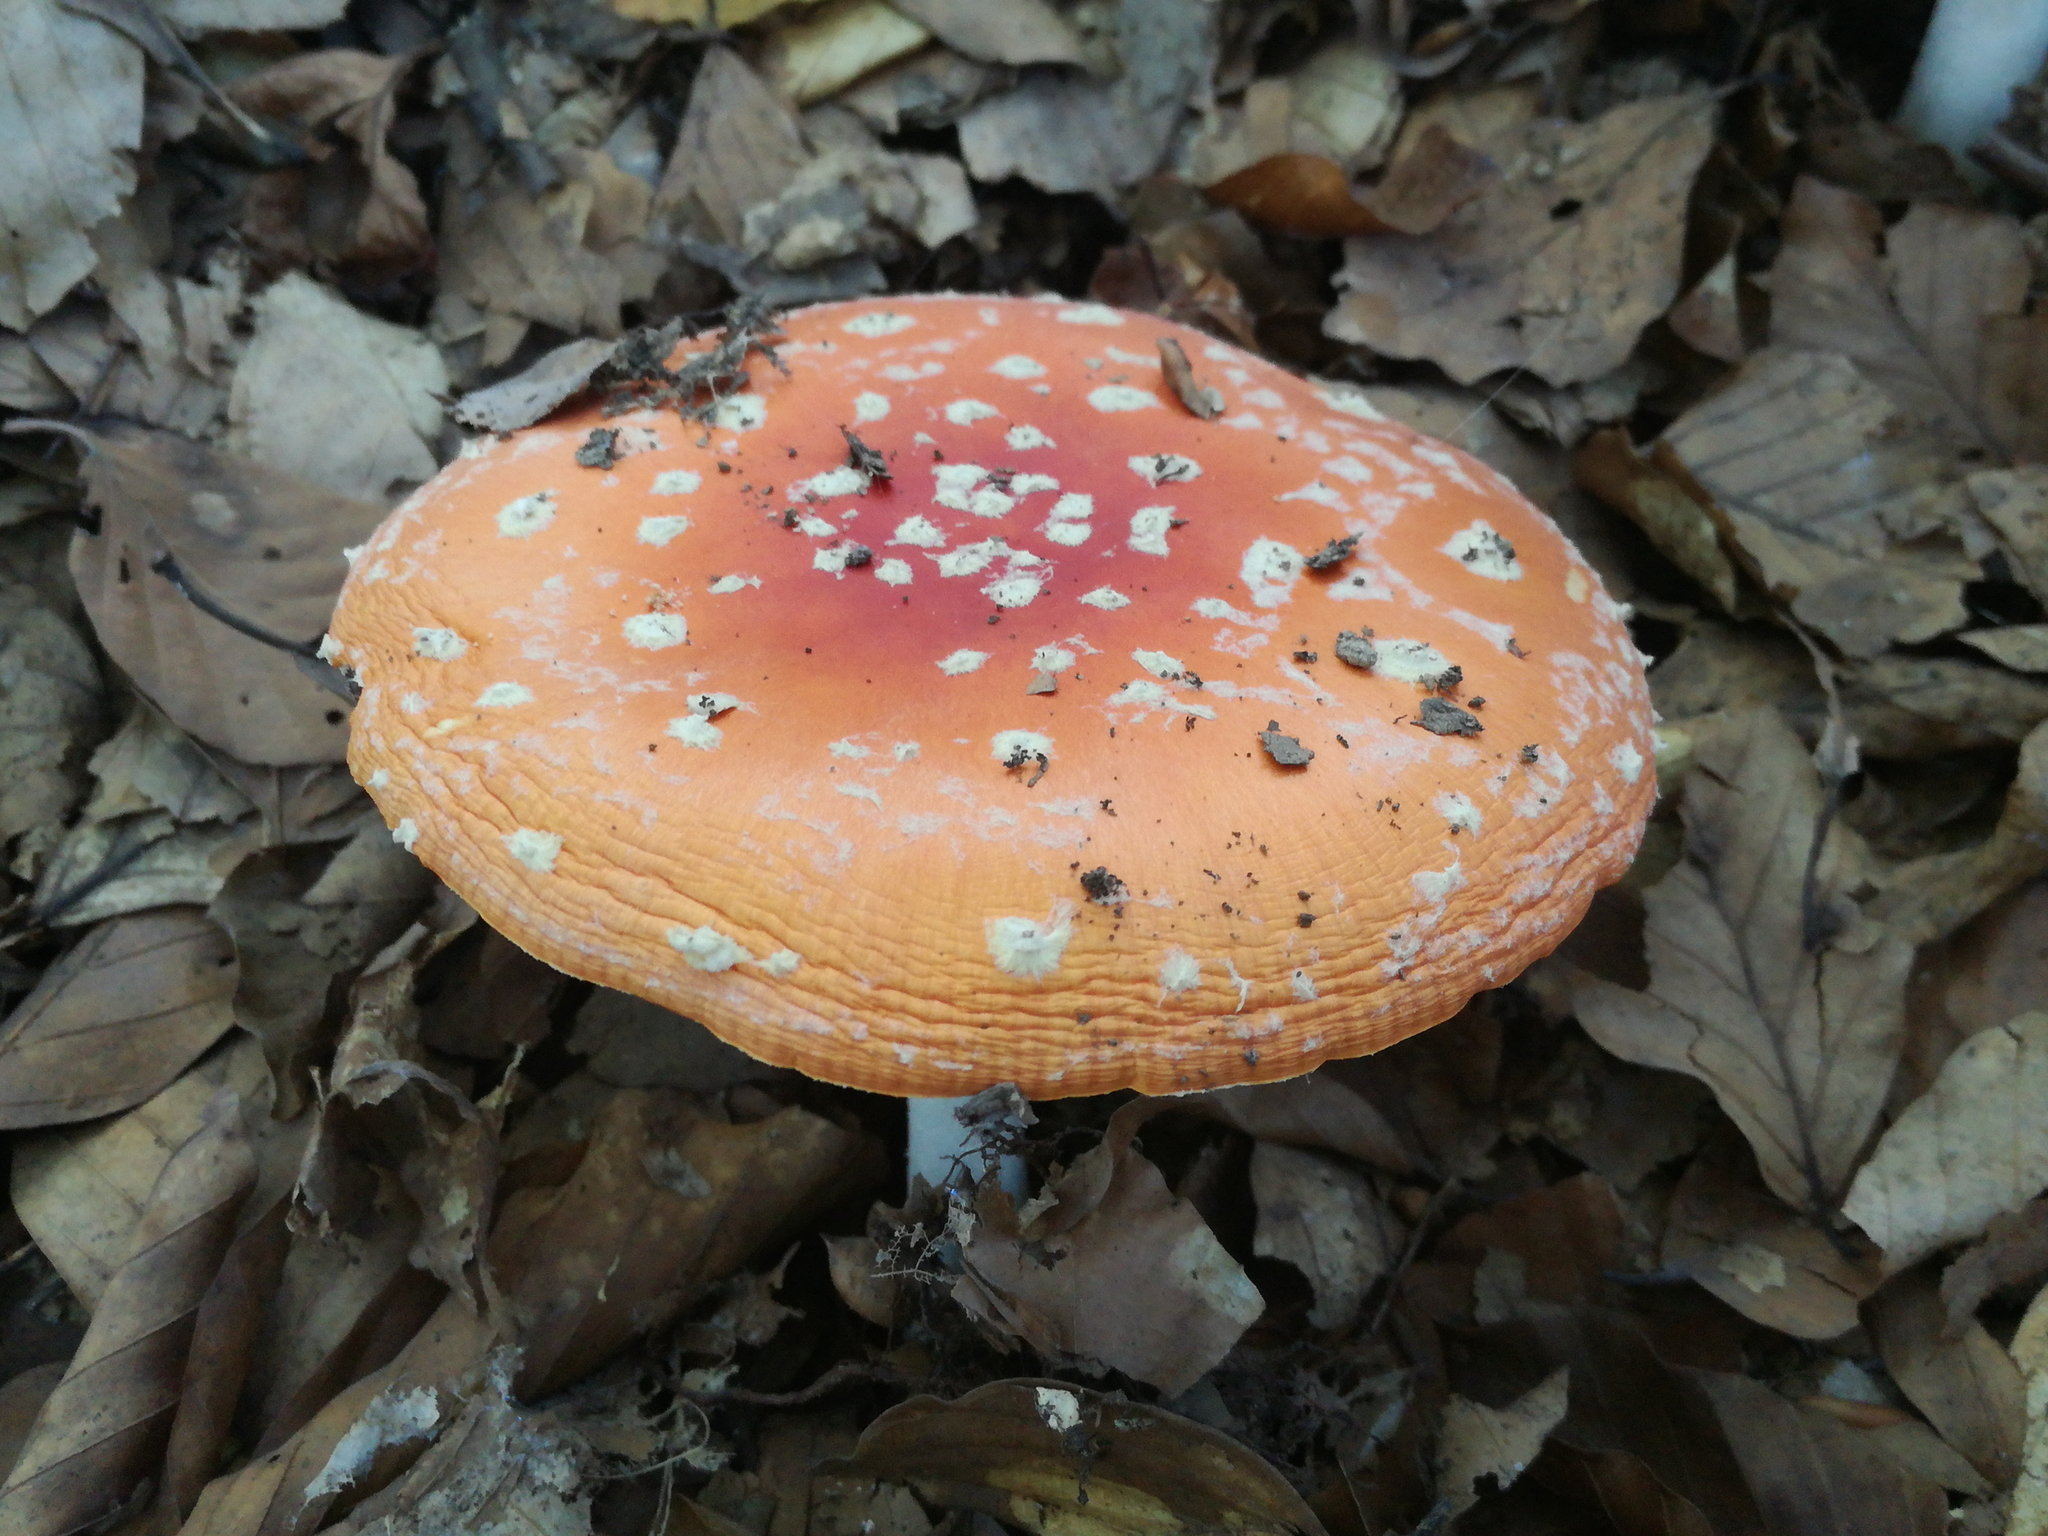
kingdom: Fungi
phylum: Basidiomycota
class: Agaricomycetes
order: Agaricales
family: Amanitaceae
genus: Amanita
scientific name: Amanita muscaria
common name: Fly agaric
